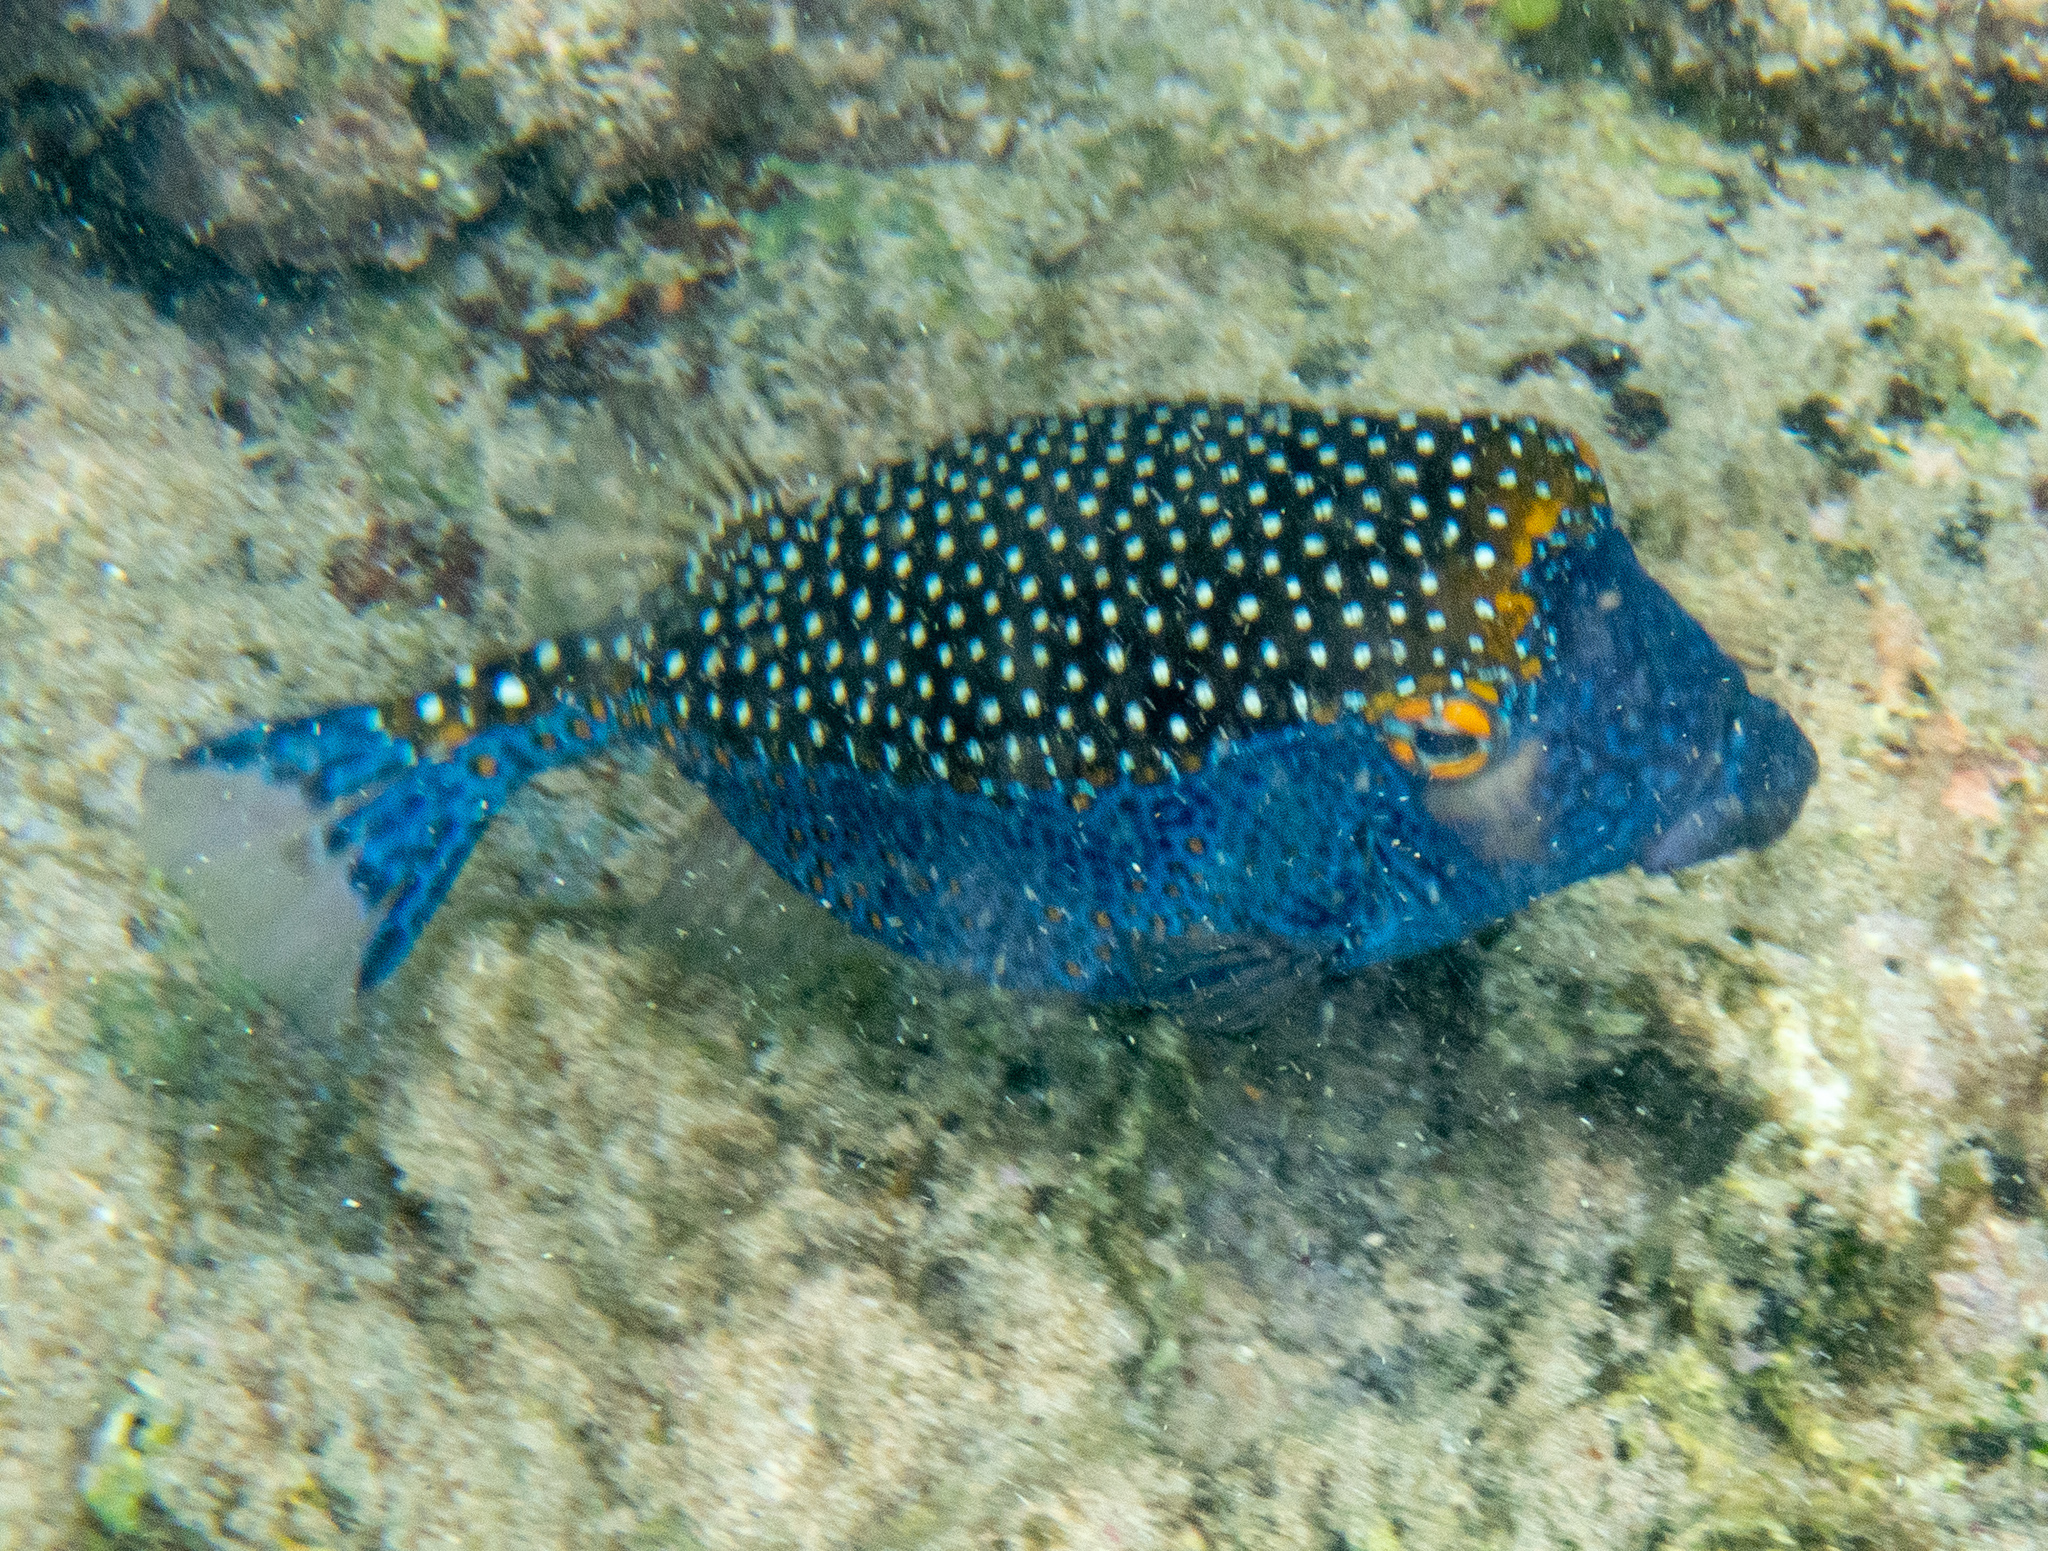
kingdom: Animalia
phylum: Chordata
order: Tetraodontiformes
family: Ostraciidae
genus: Ostracion
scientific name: Ostracion meleagris
